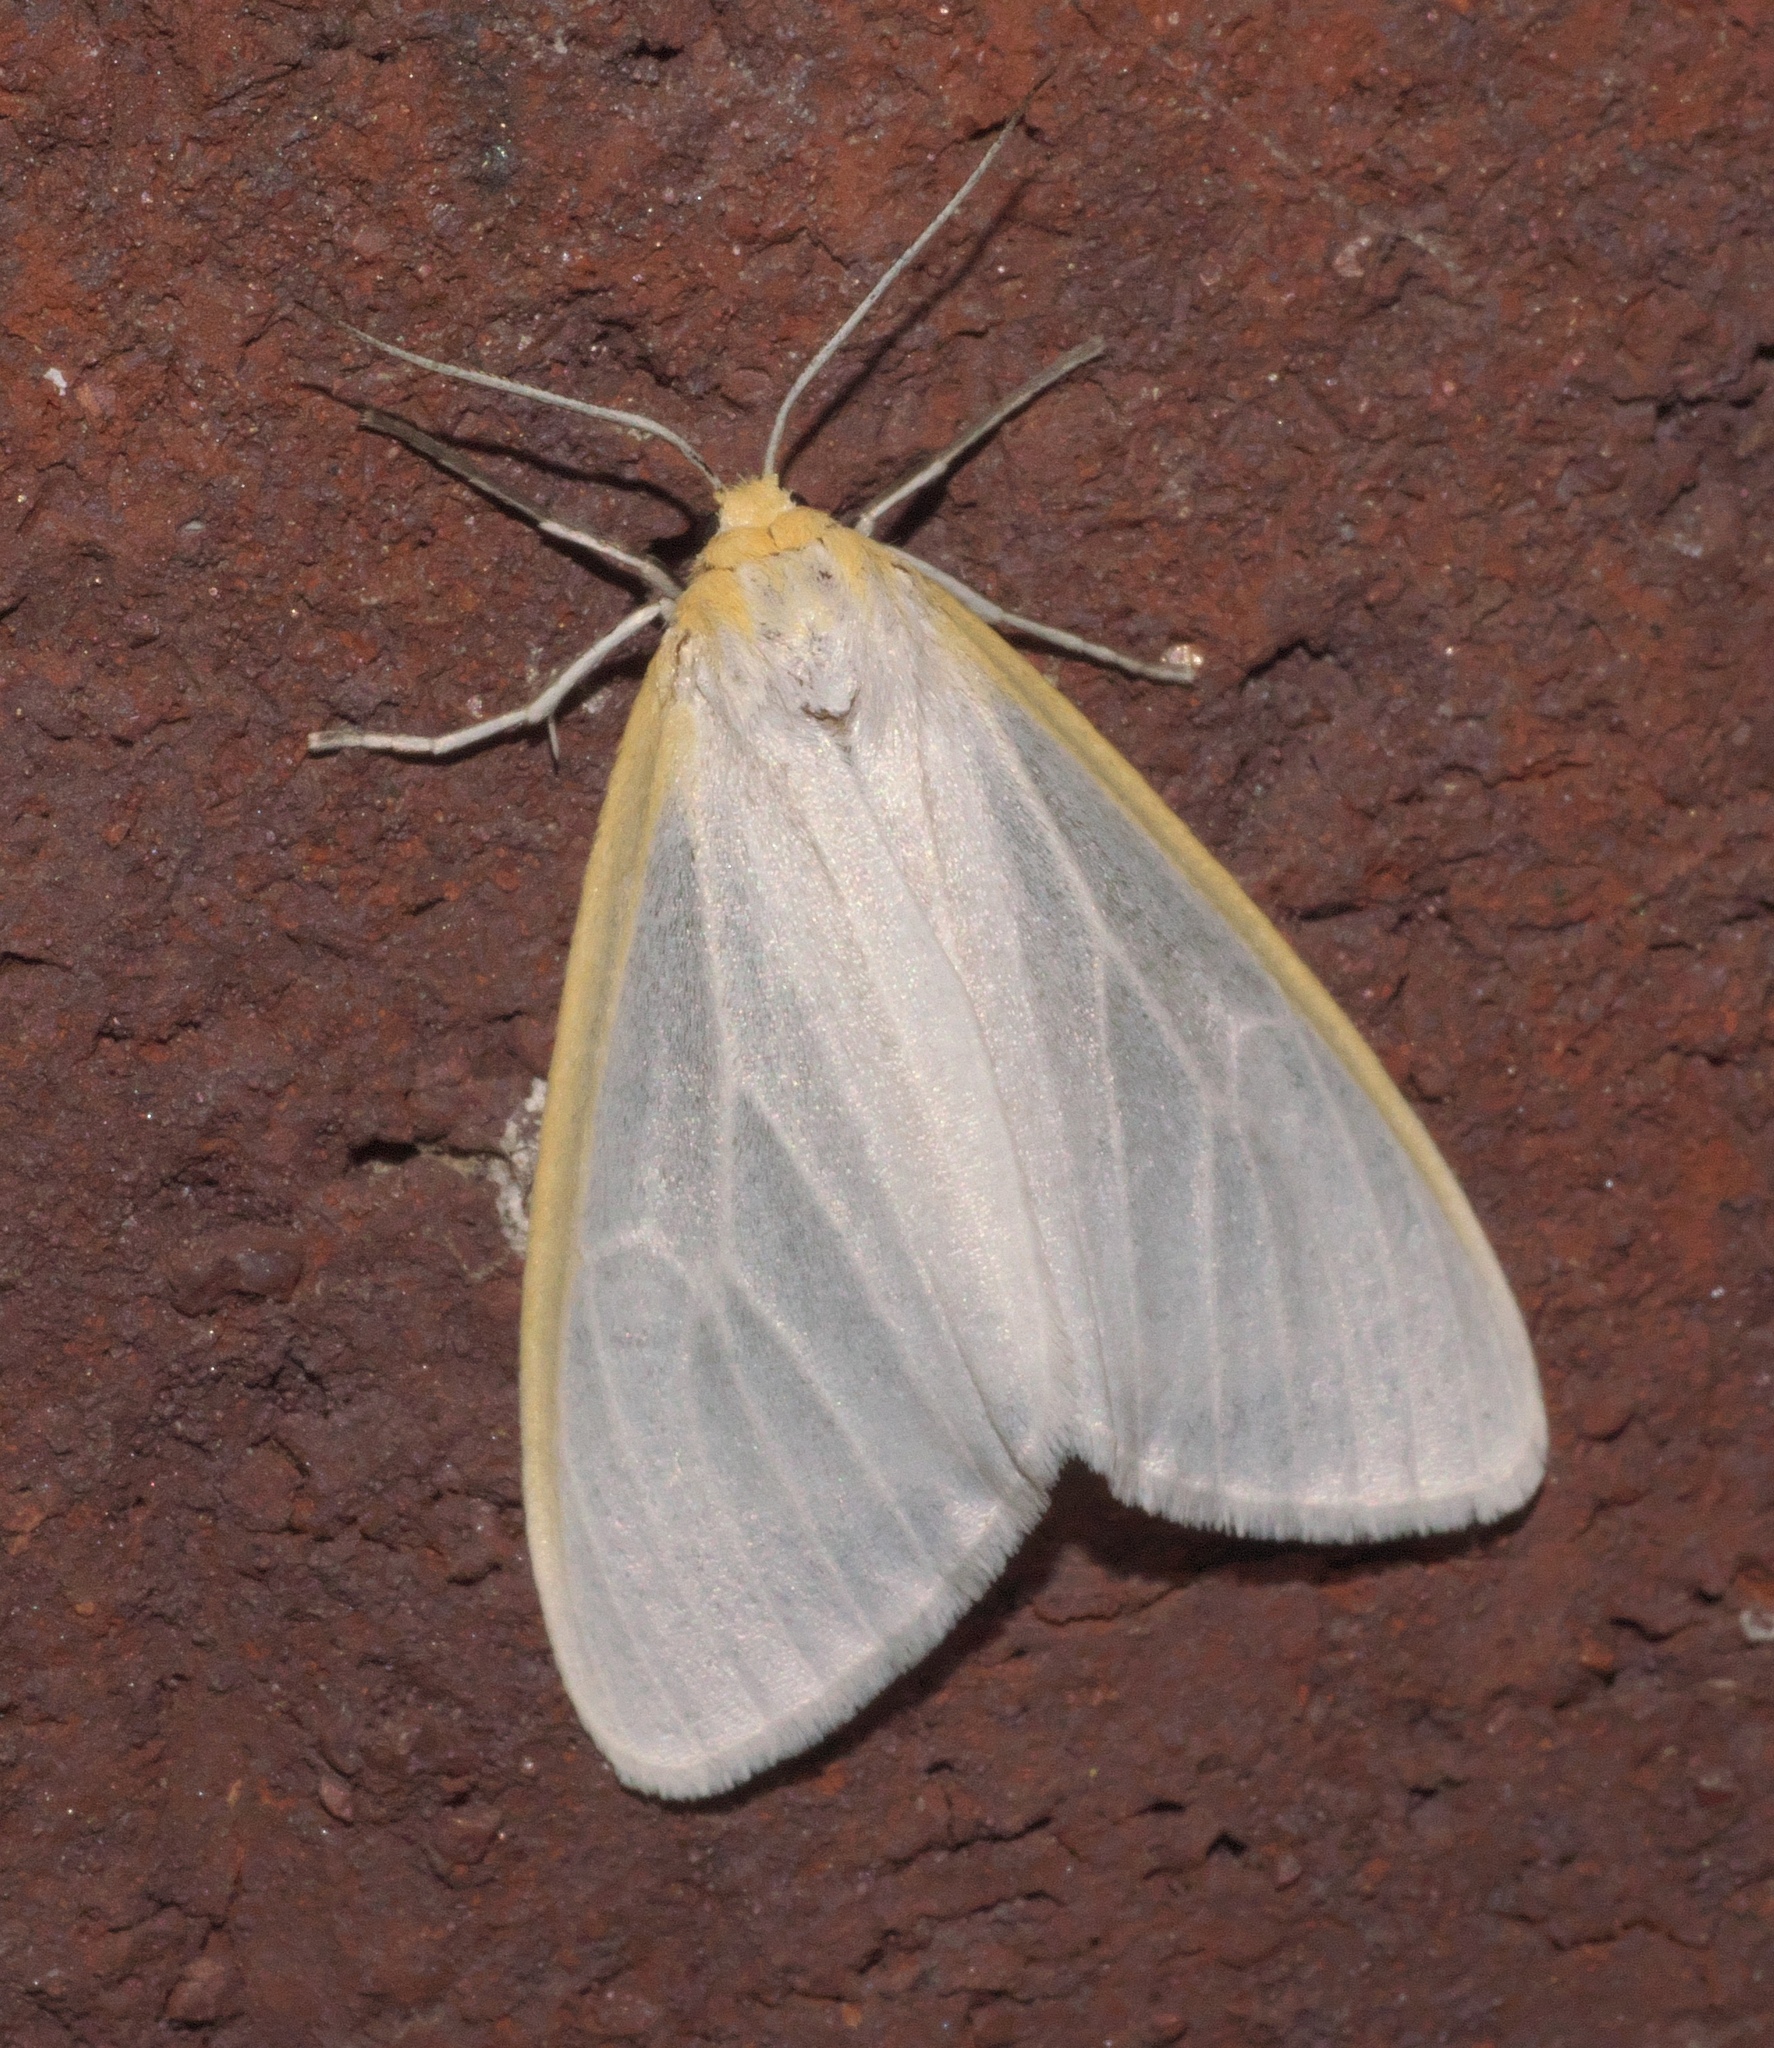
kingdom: Animalia
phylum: Arthropoda
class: Insecta
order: Lepidoptera
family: Erebidae
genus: Cycnia
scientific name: Cycnia tenera
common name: Delicate cycnia moth
